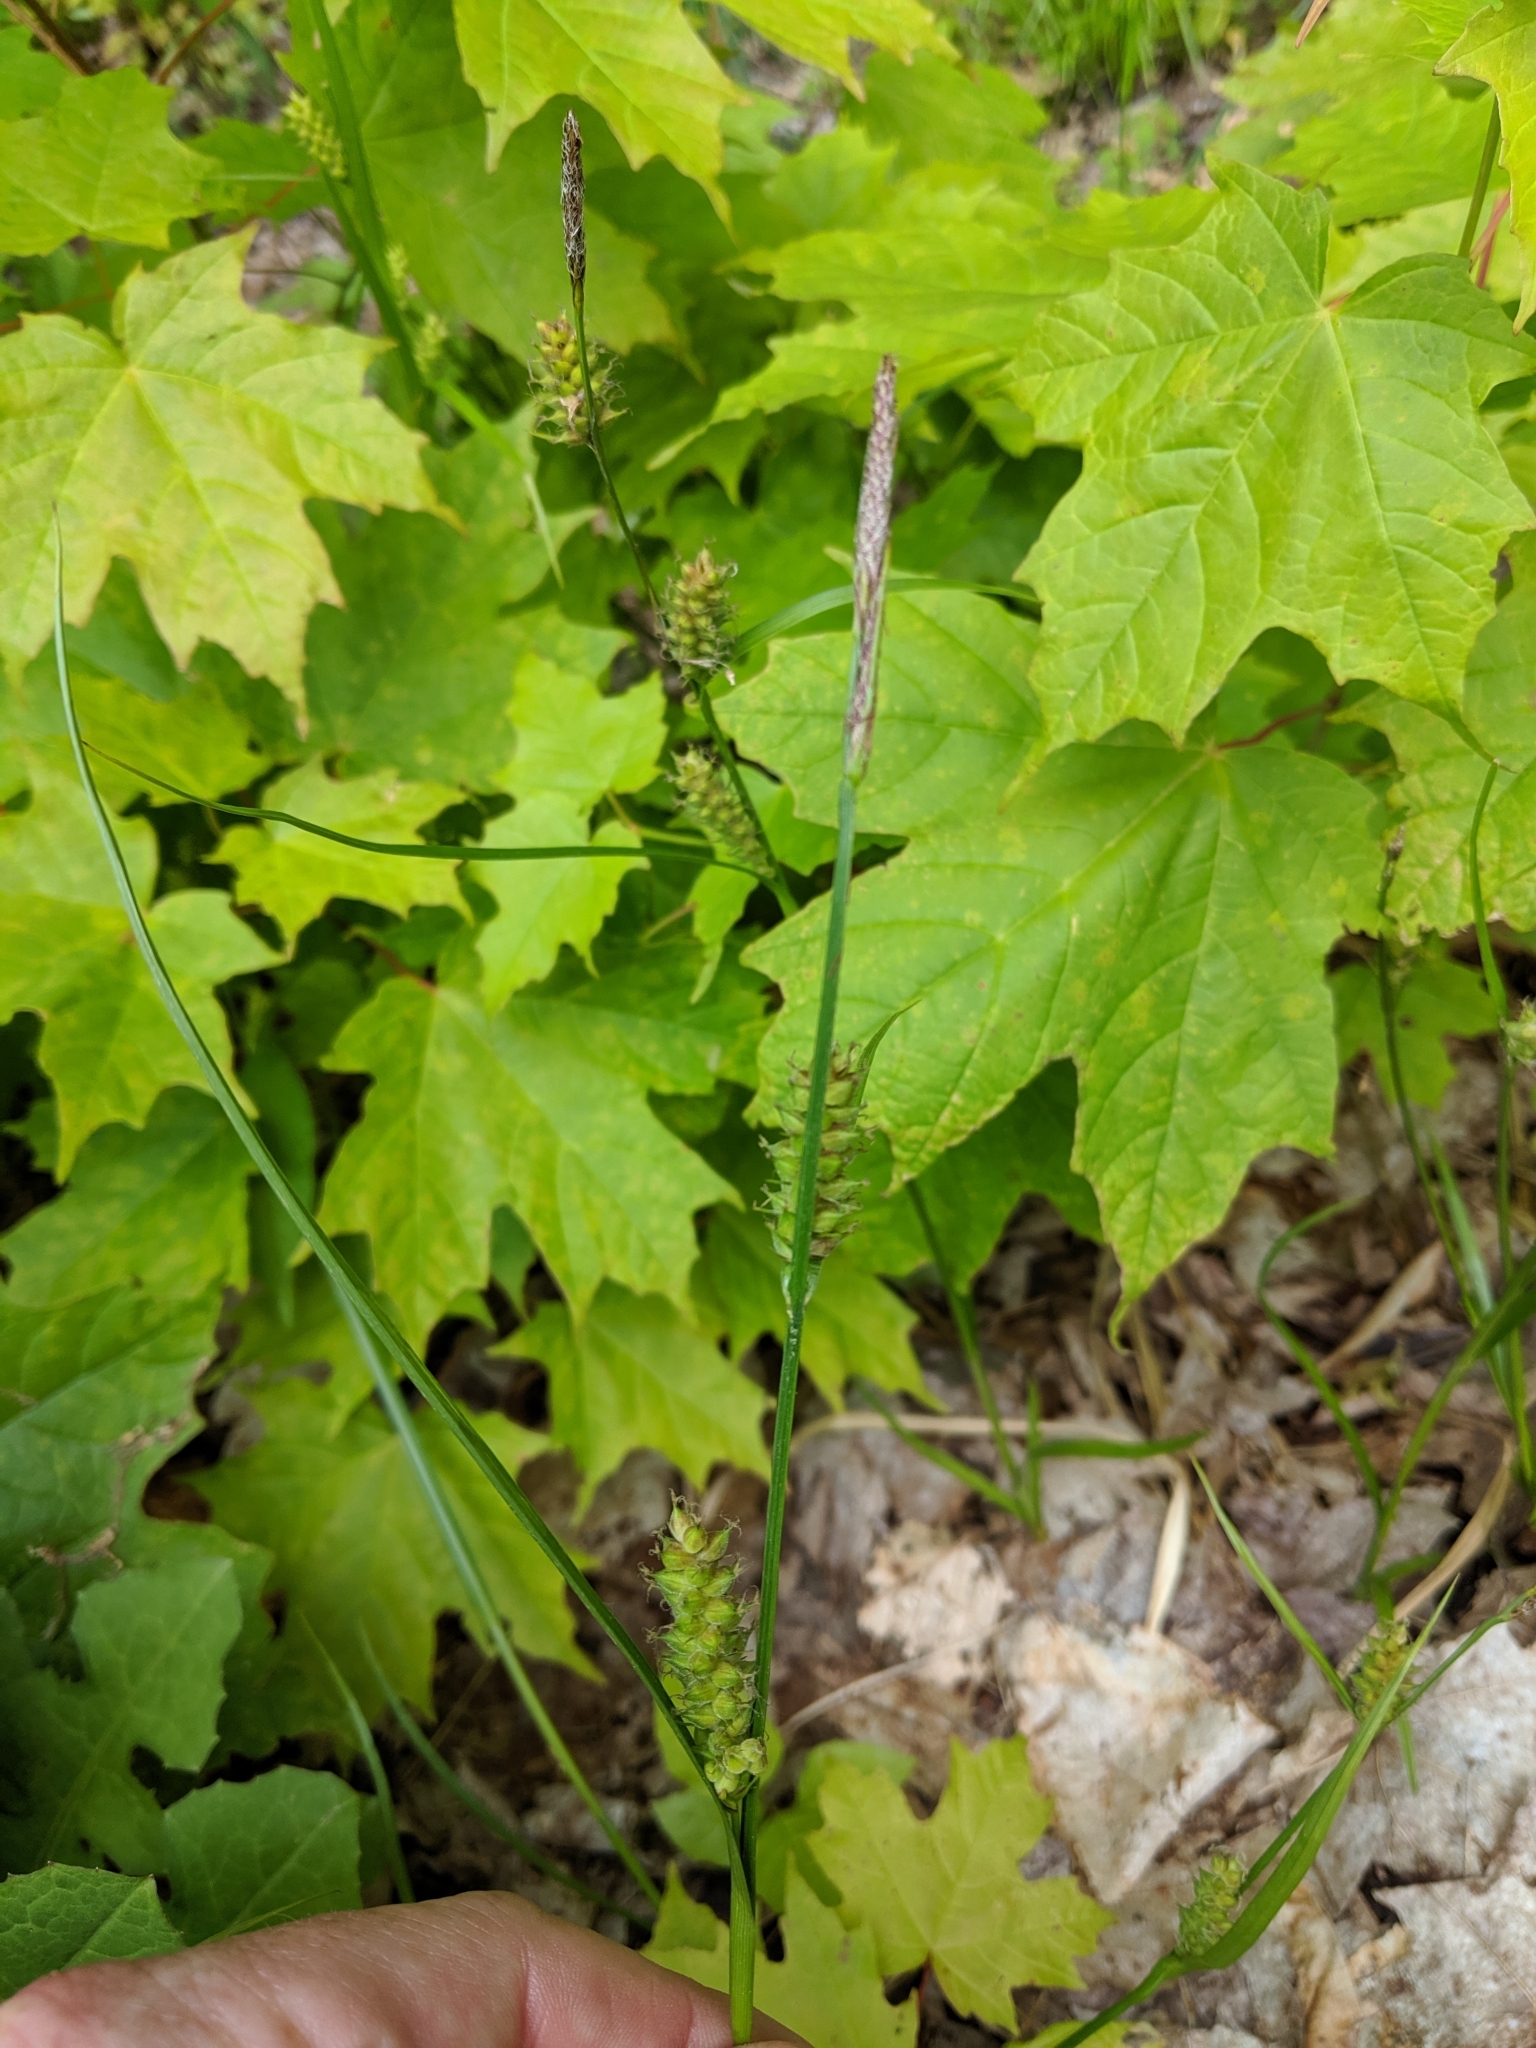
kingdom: Plantae
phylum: Tracheophyta
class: Liliopsida
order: Poales
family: Cyperaceae
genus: Carex
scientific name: Carex houghtoniana
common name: Houghton's sedge
